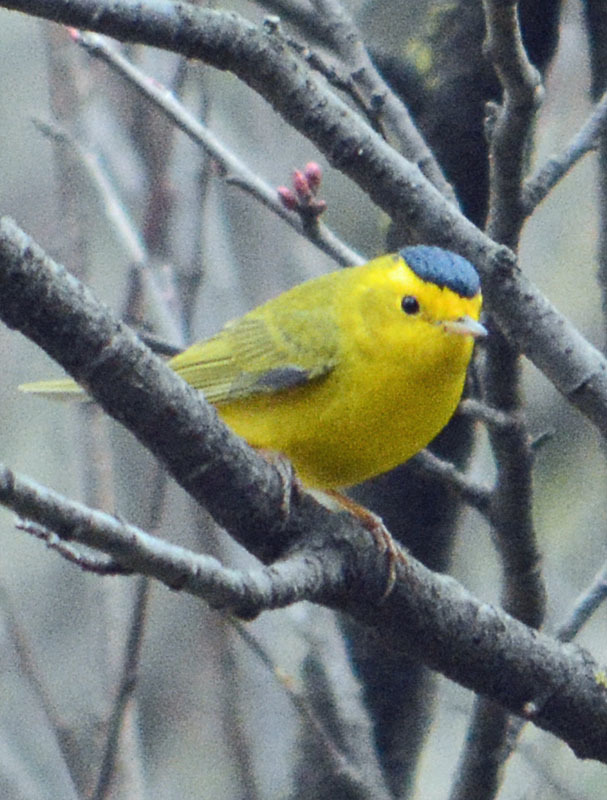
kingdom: Animalia
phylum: Chordata
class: Aves
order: Passeriformes
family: Parulidae
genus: Cardellina
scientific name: Cardellina pusilla
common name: Wilson's warbler
